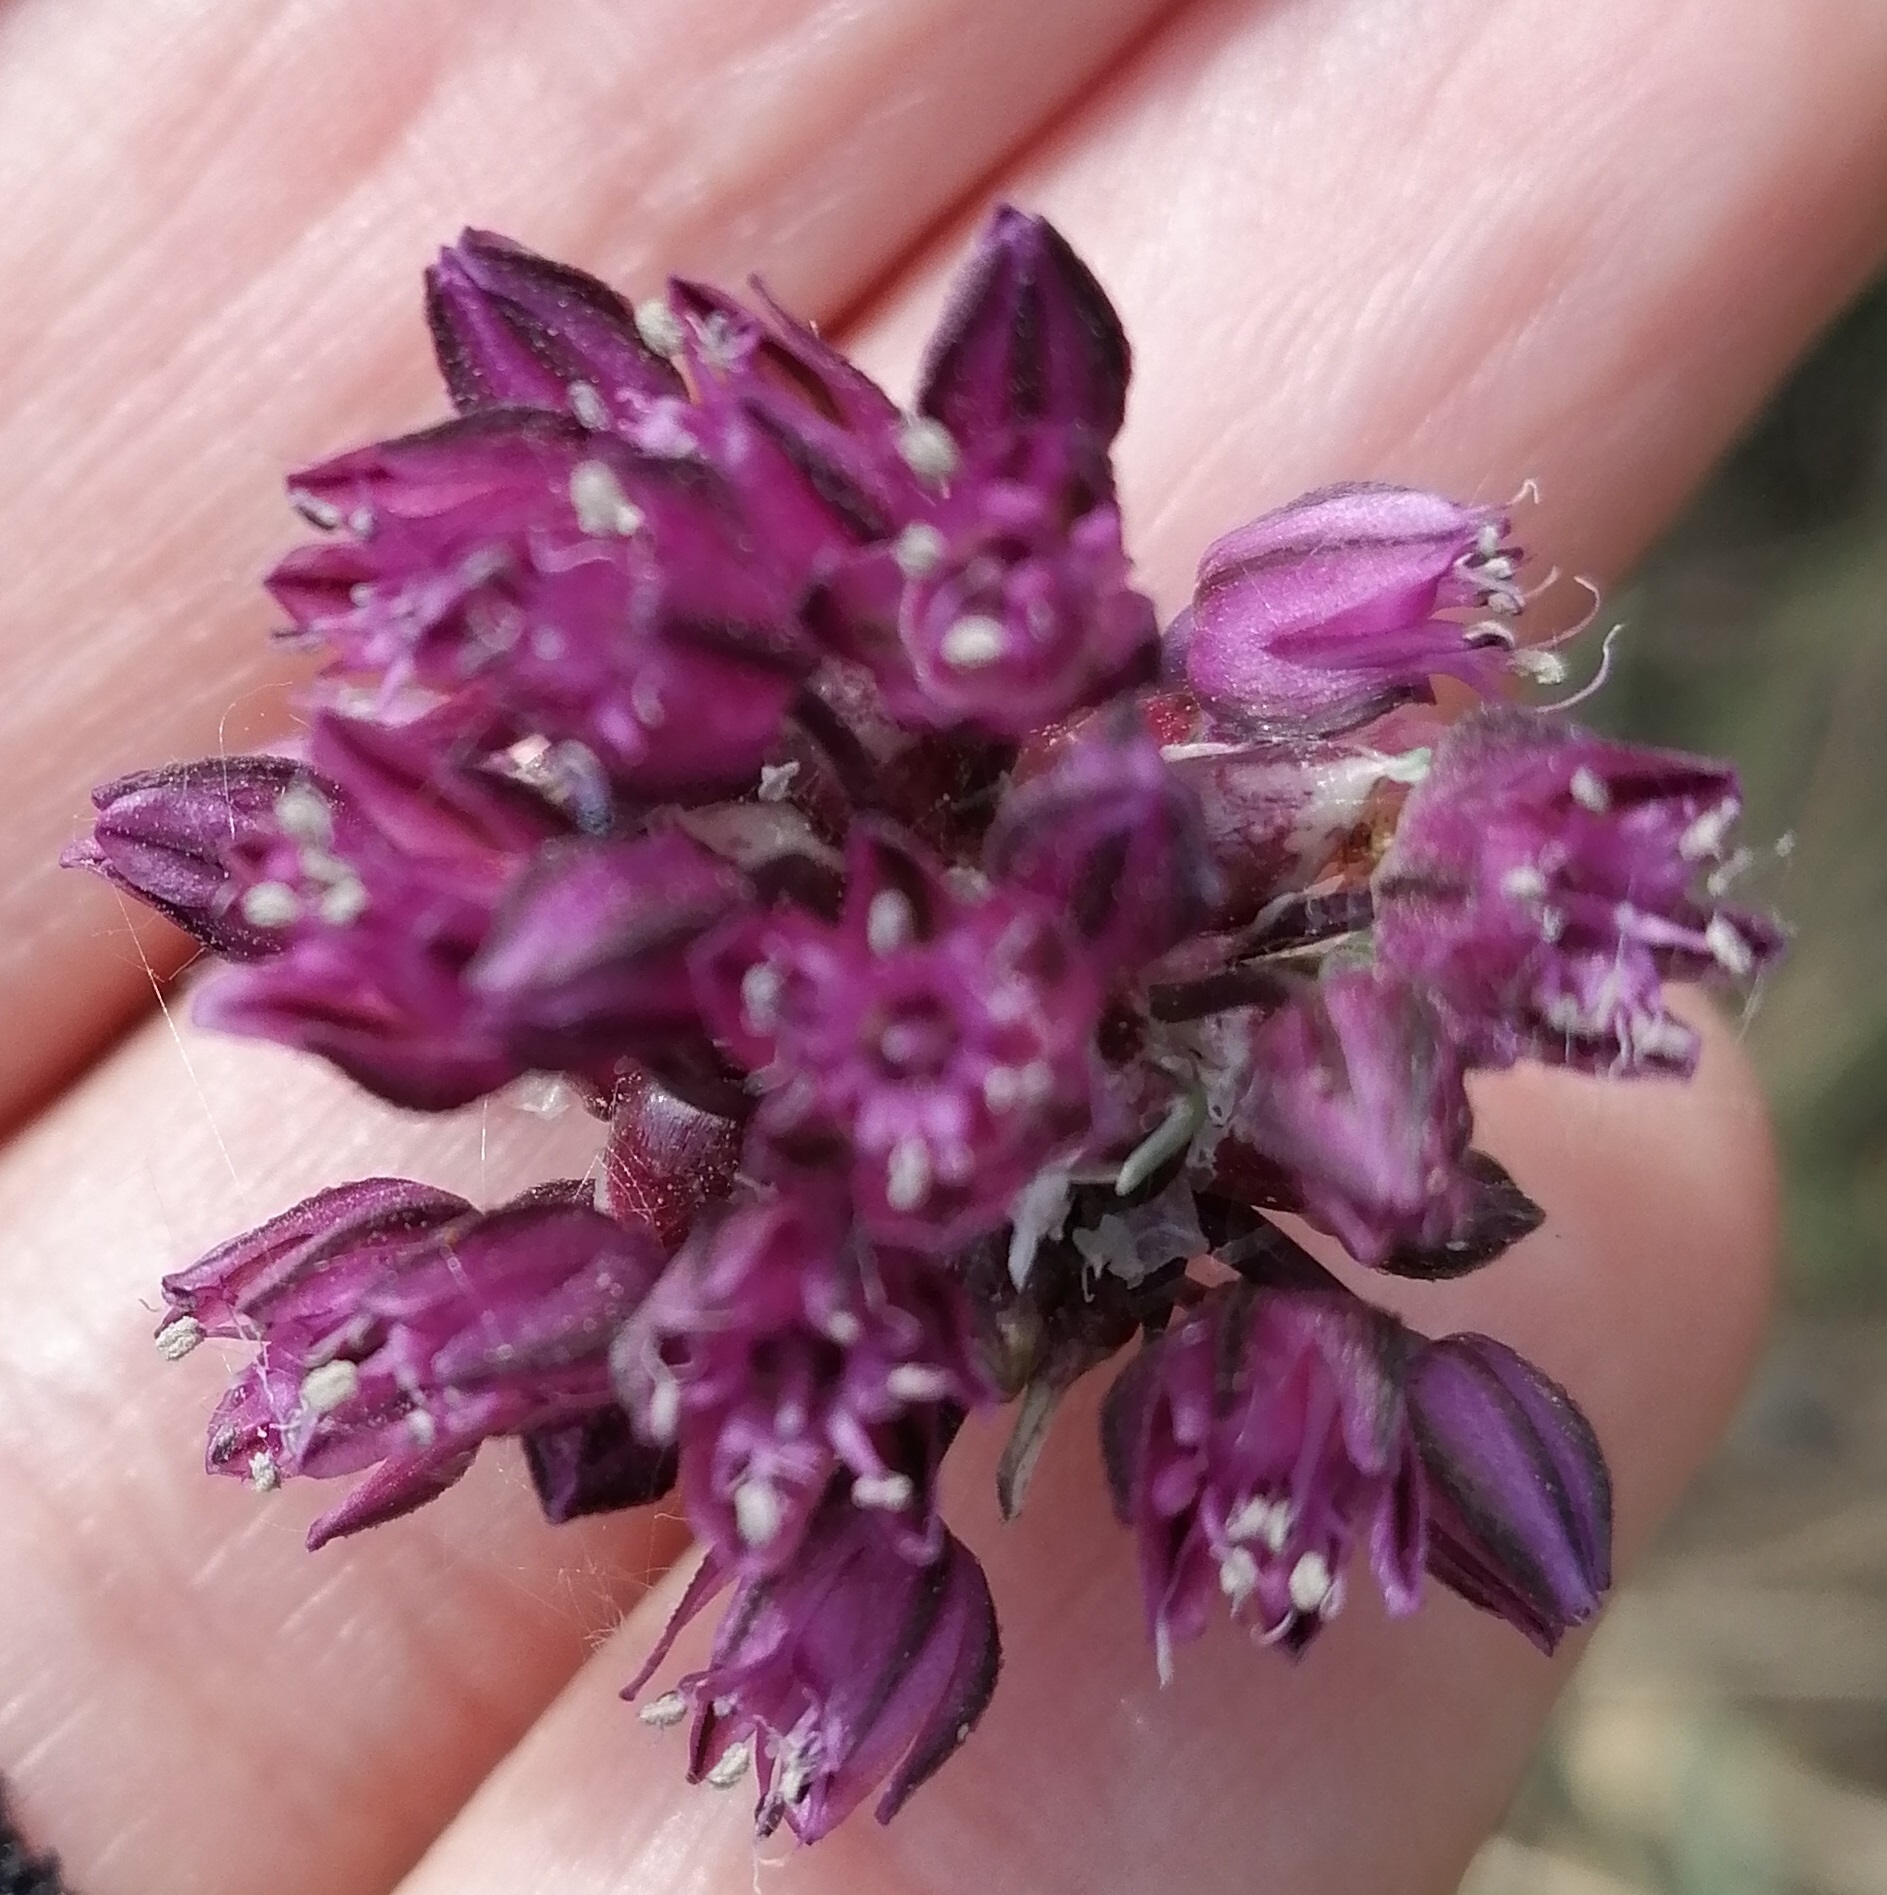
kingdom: Plantae
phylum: Tracheophyta
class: Liliopsida
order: Asparagales
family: Amaryllidaceae
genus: Allium
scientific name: Allium scorodoprasum
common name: Sand leek
